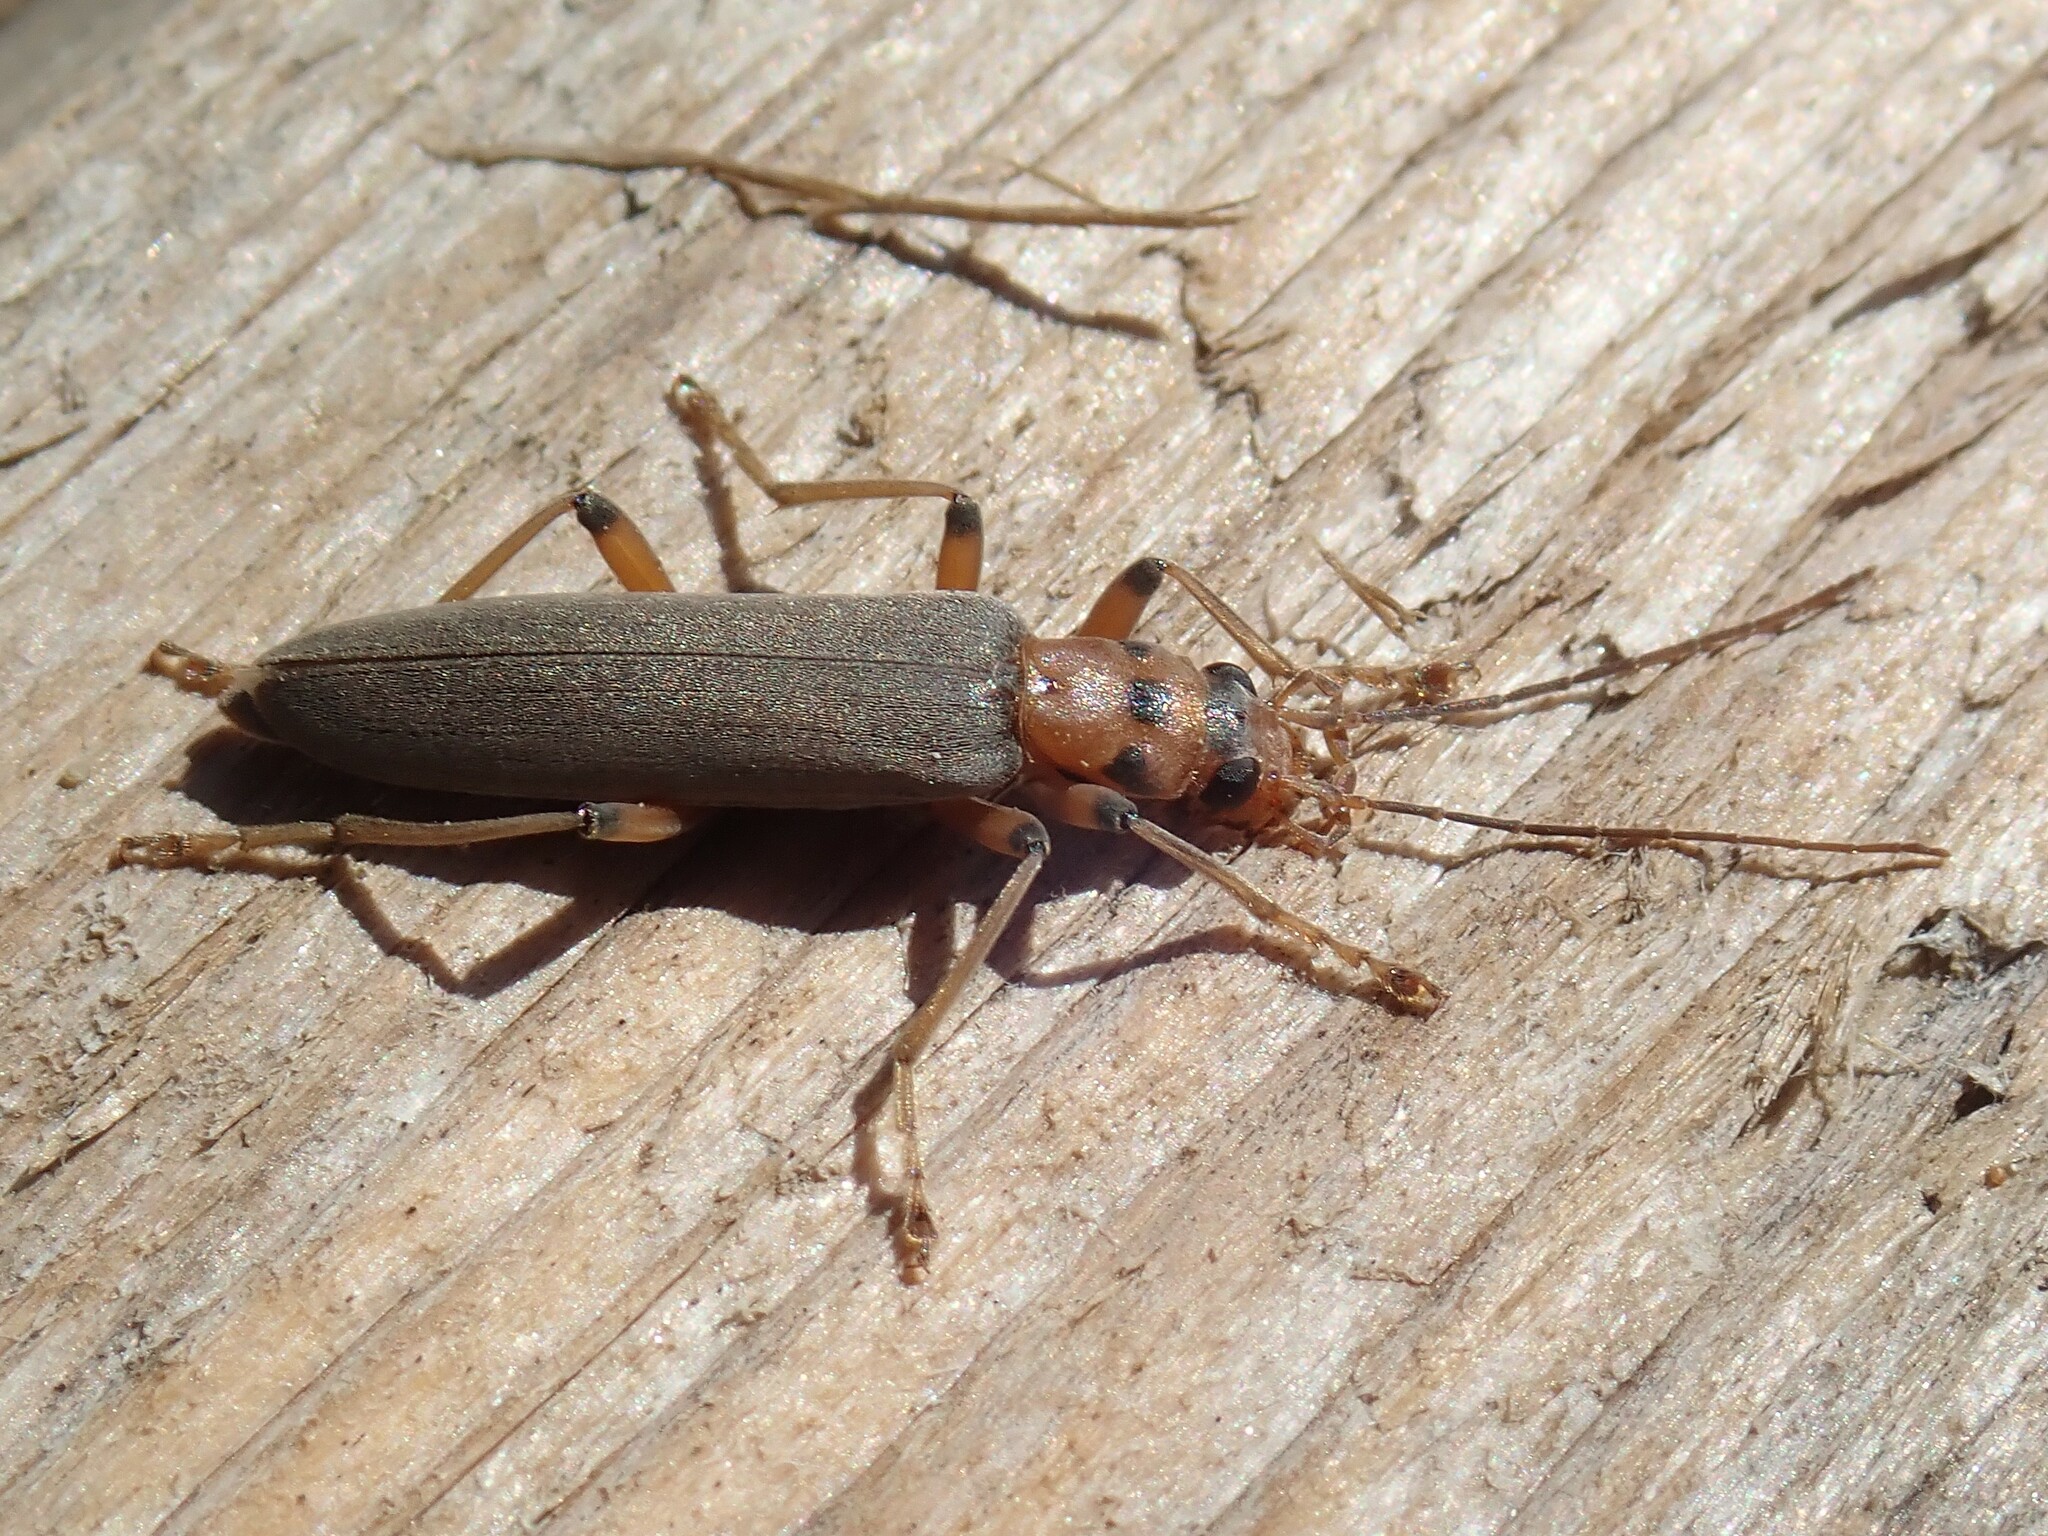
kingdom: Animalia
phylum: Arthropoda
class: Insecta
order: Coleoptera
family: Oedemeridae
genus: Copidita
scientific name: Copidita quadrimaculata
